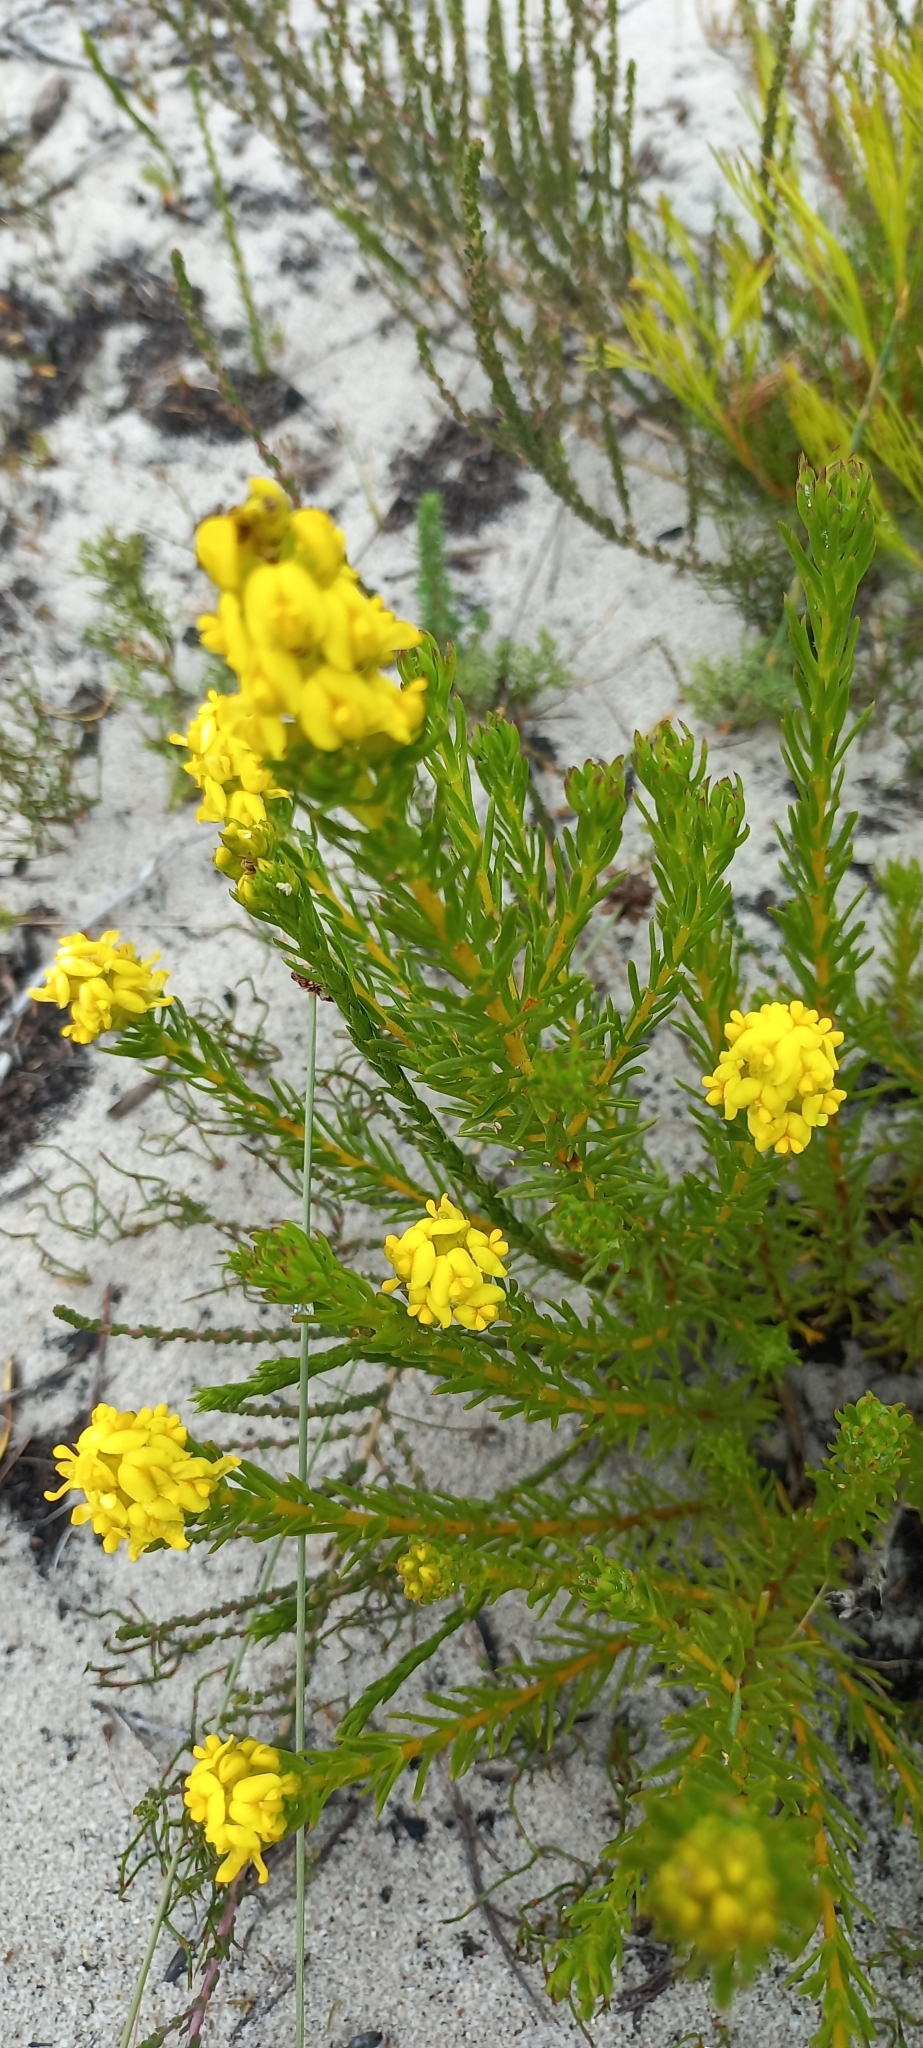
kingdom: Plantae
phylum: Tracheophyta
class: Magnoliopsida
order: Fabales
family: Fabaceae
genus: Aspalathus
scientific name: Aspalathus callosa
